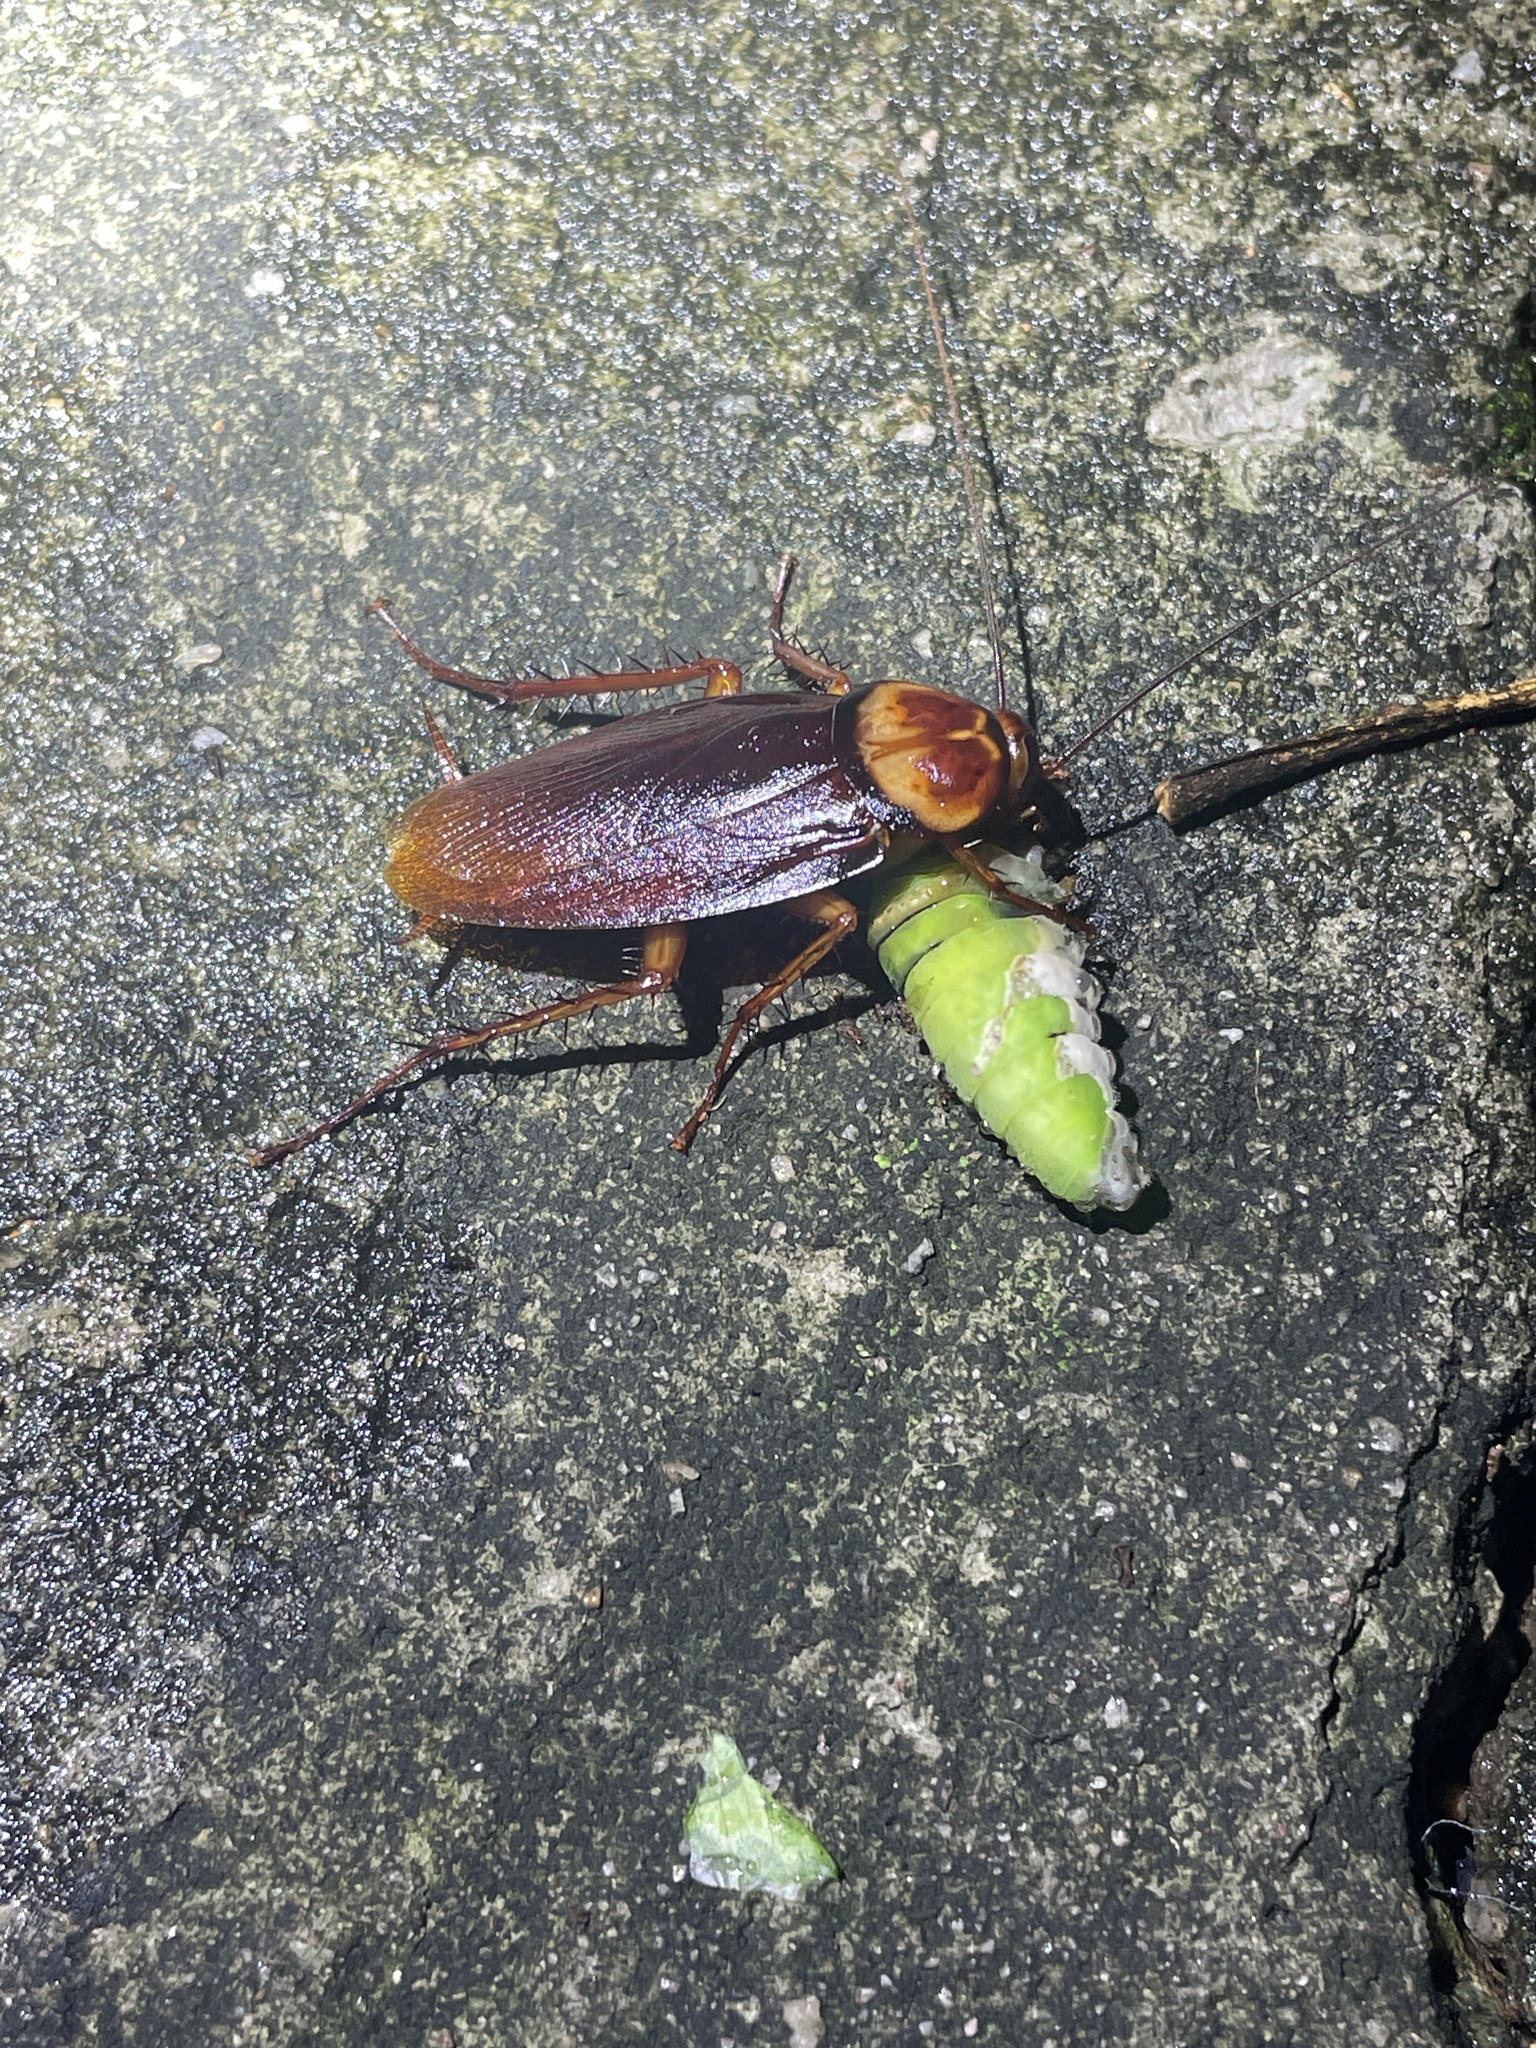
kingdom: Animalia
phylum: Arthropoda
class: Insecta
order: Blattodea
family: Blattidae
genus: Periplaneta
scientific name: Periplaneta americana
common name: American cockroach
